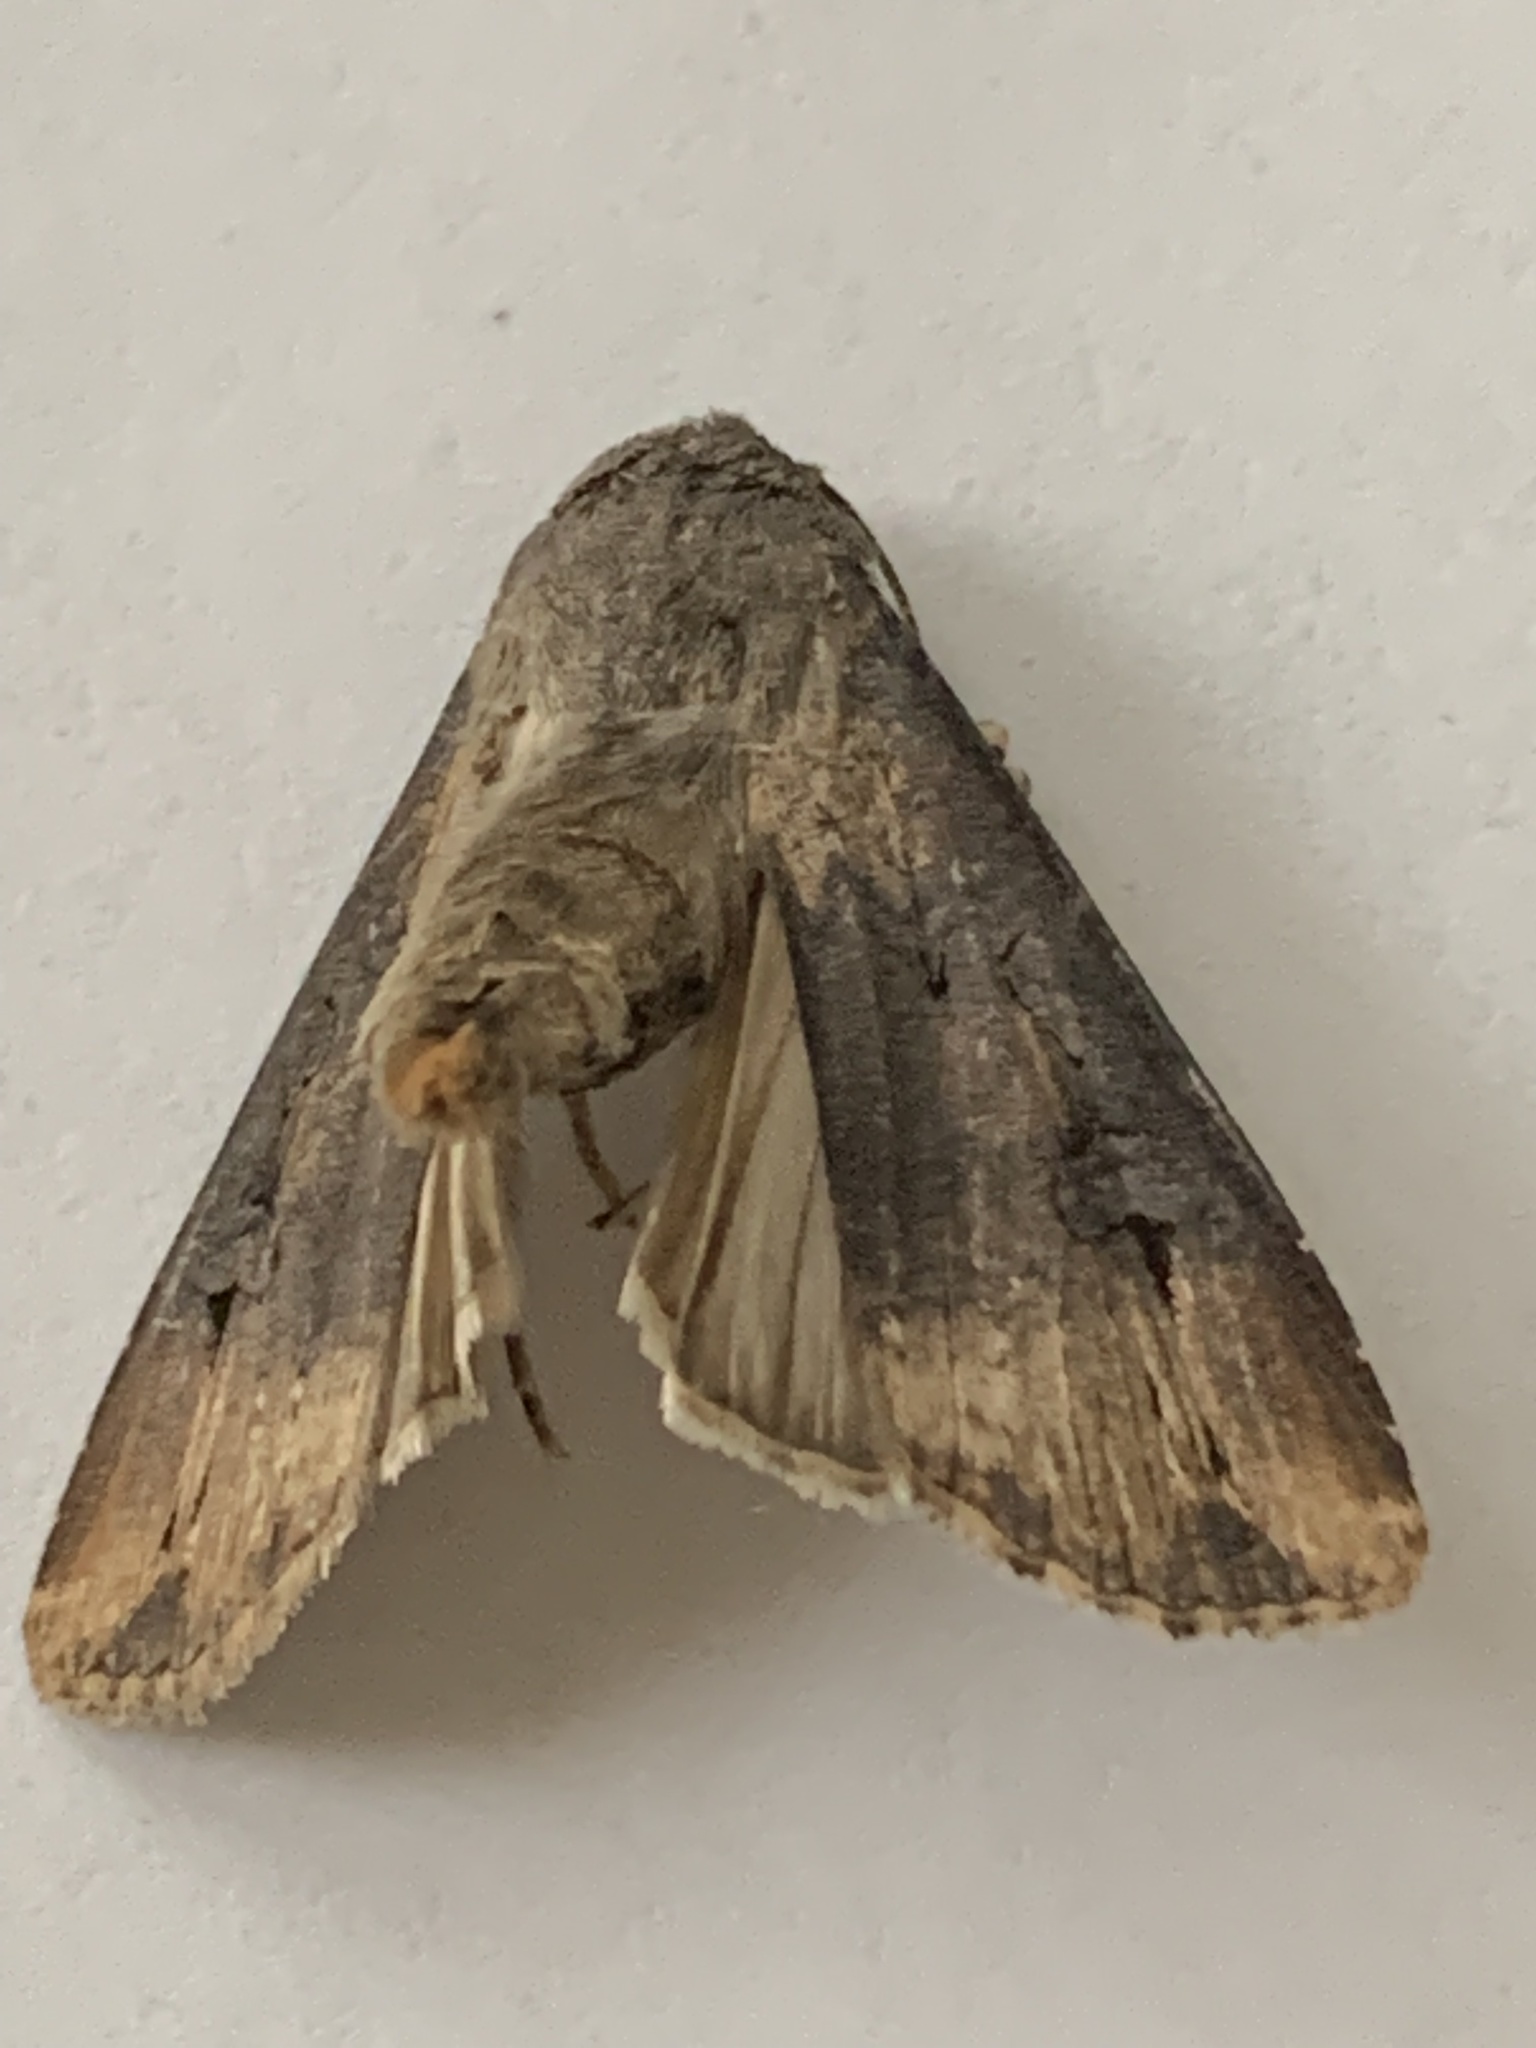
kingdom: Animalia
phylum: Arthropoda
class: Insecta
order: Lepidoptera
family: Noctuidae
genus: Agrotis
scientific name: Agrotis ipsilon
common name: Dark sword-grass
